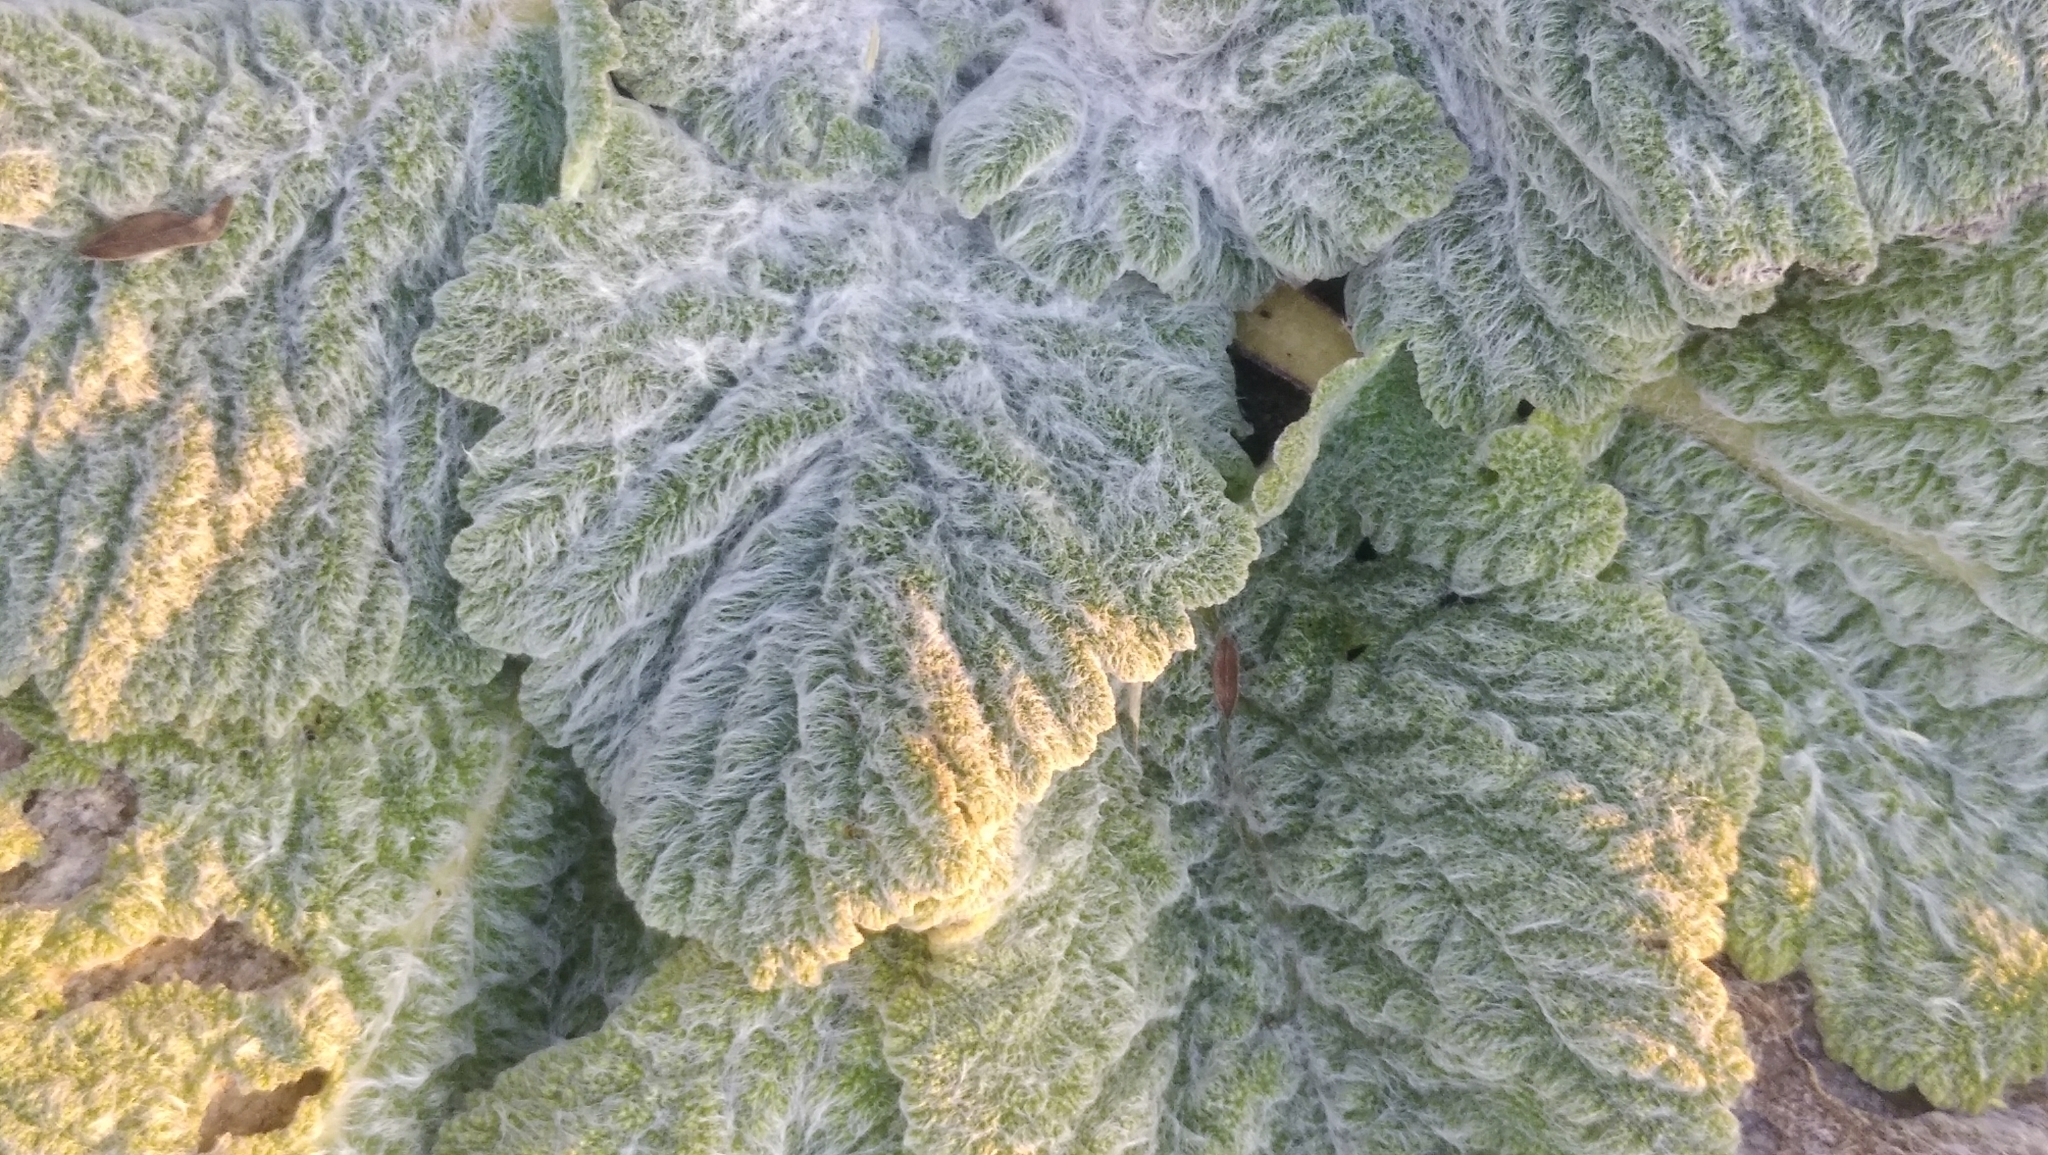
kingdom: Plantae
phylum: Tracheophyta
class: Magnoliopsida
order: Lamiales
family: Lamiaceae
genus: Salvia
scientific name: Salvia aethiopis
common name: Mediterranean sage
